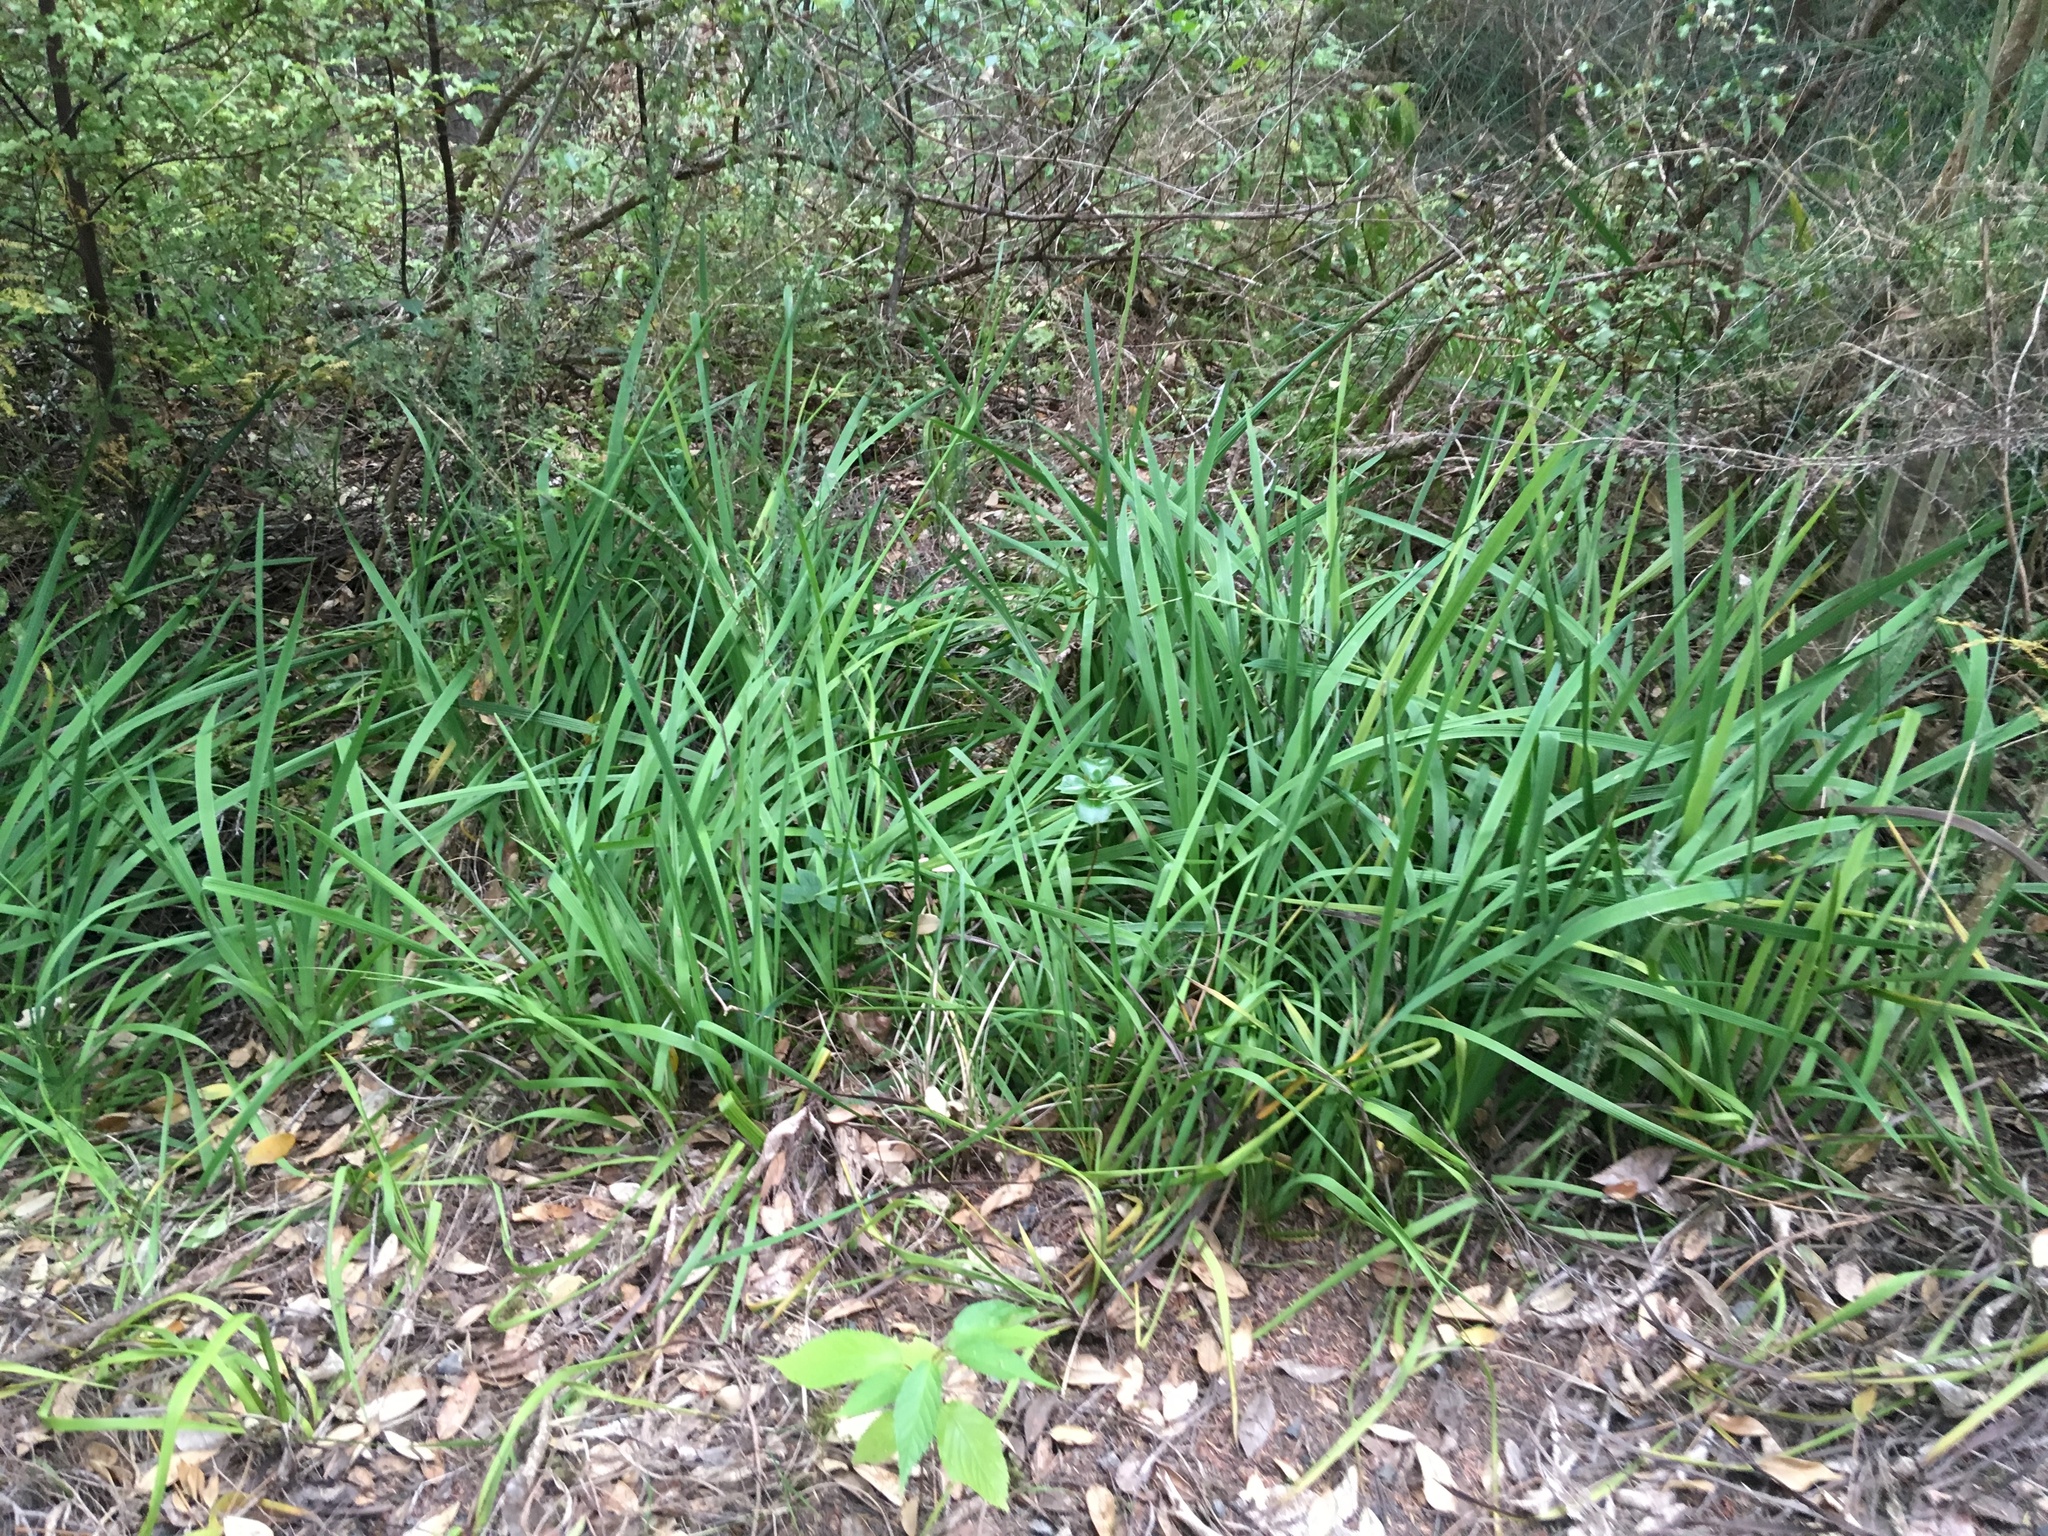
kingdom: Plantae
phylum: Tracheophyta
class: Liliopsida
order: Asparagales
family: Iridaceae
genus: Aristea
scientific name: Aristea ecklonii
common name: Blue corn-lily
